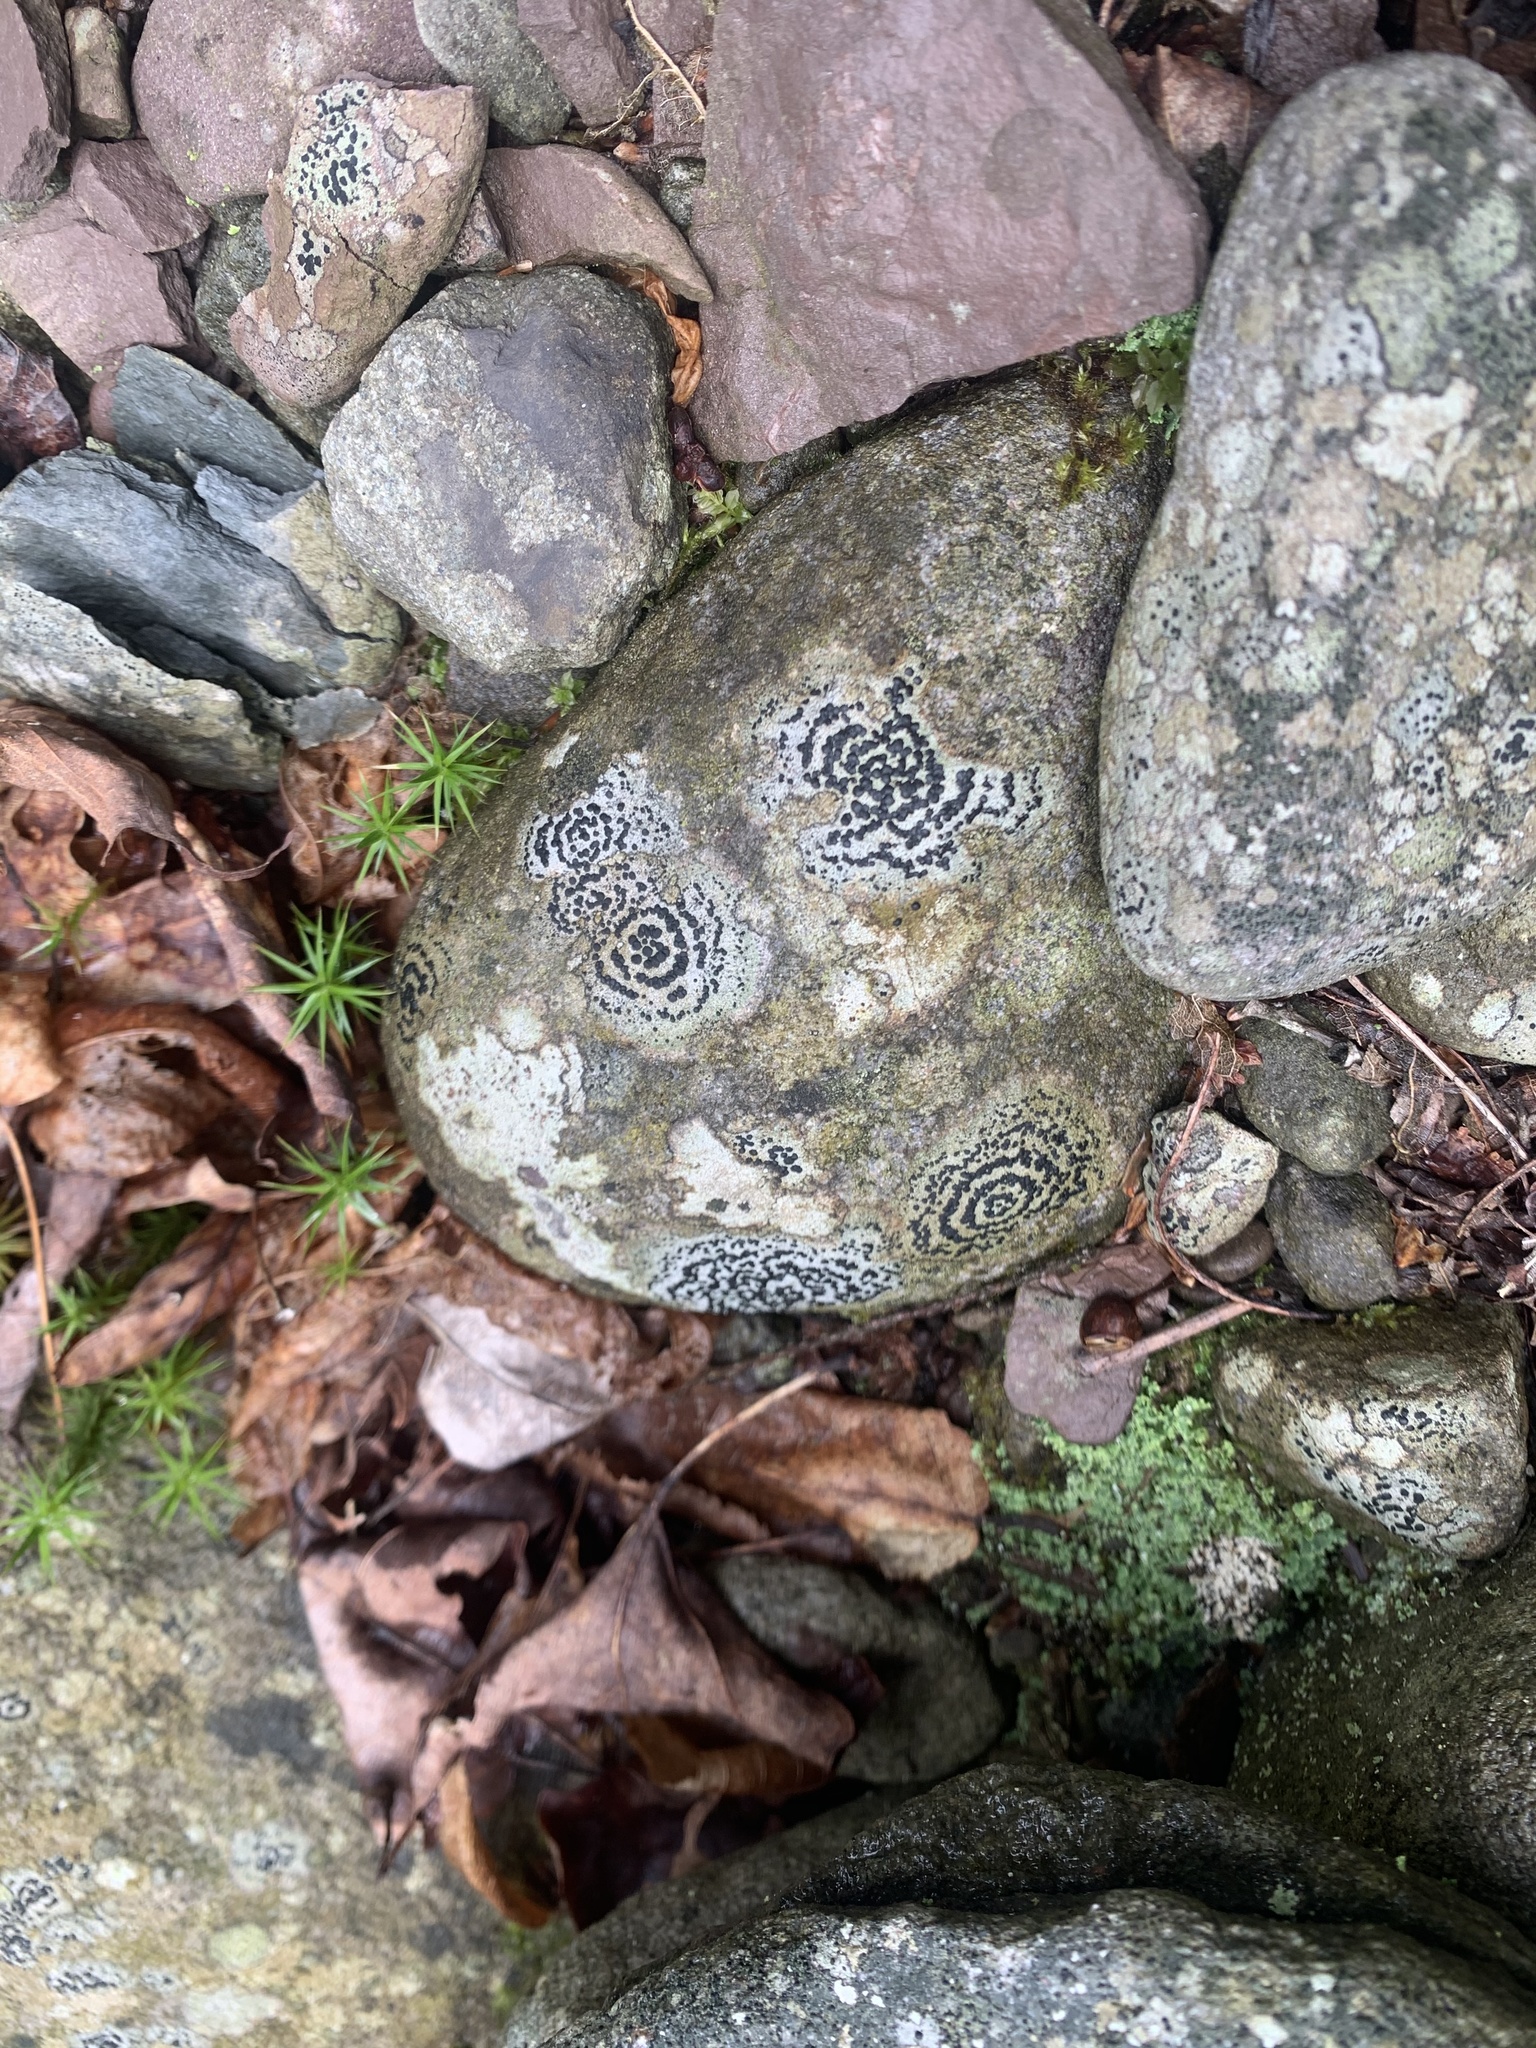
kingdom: Fungi
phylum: Ascomycota
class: Lecanoromycetes
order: Lecideales
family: Lecideaceae
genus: Porpidia
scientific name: Porpidia crustulata
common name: Concentric boulder lichen
